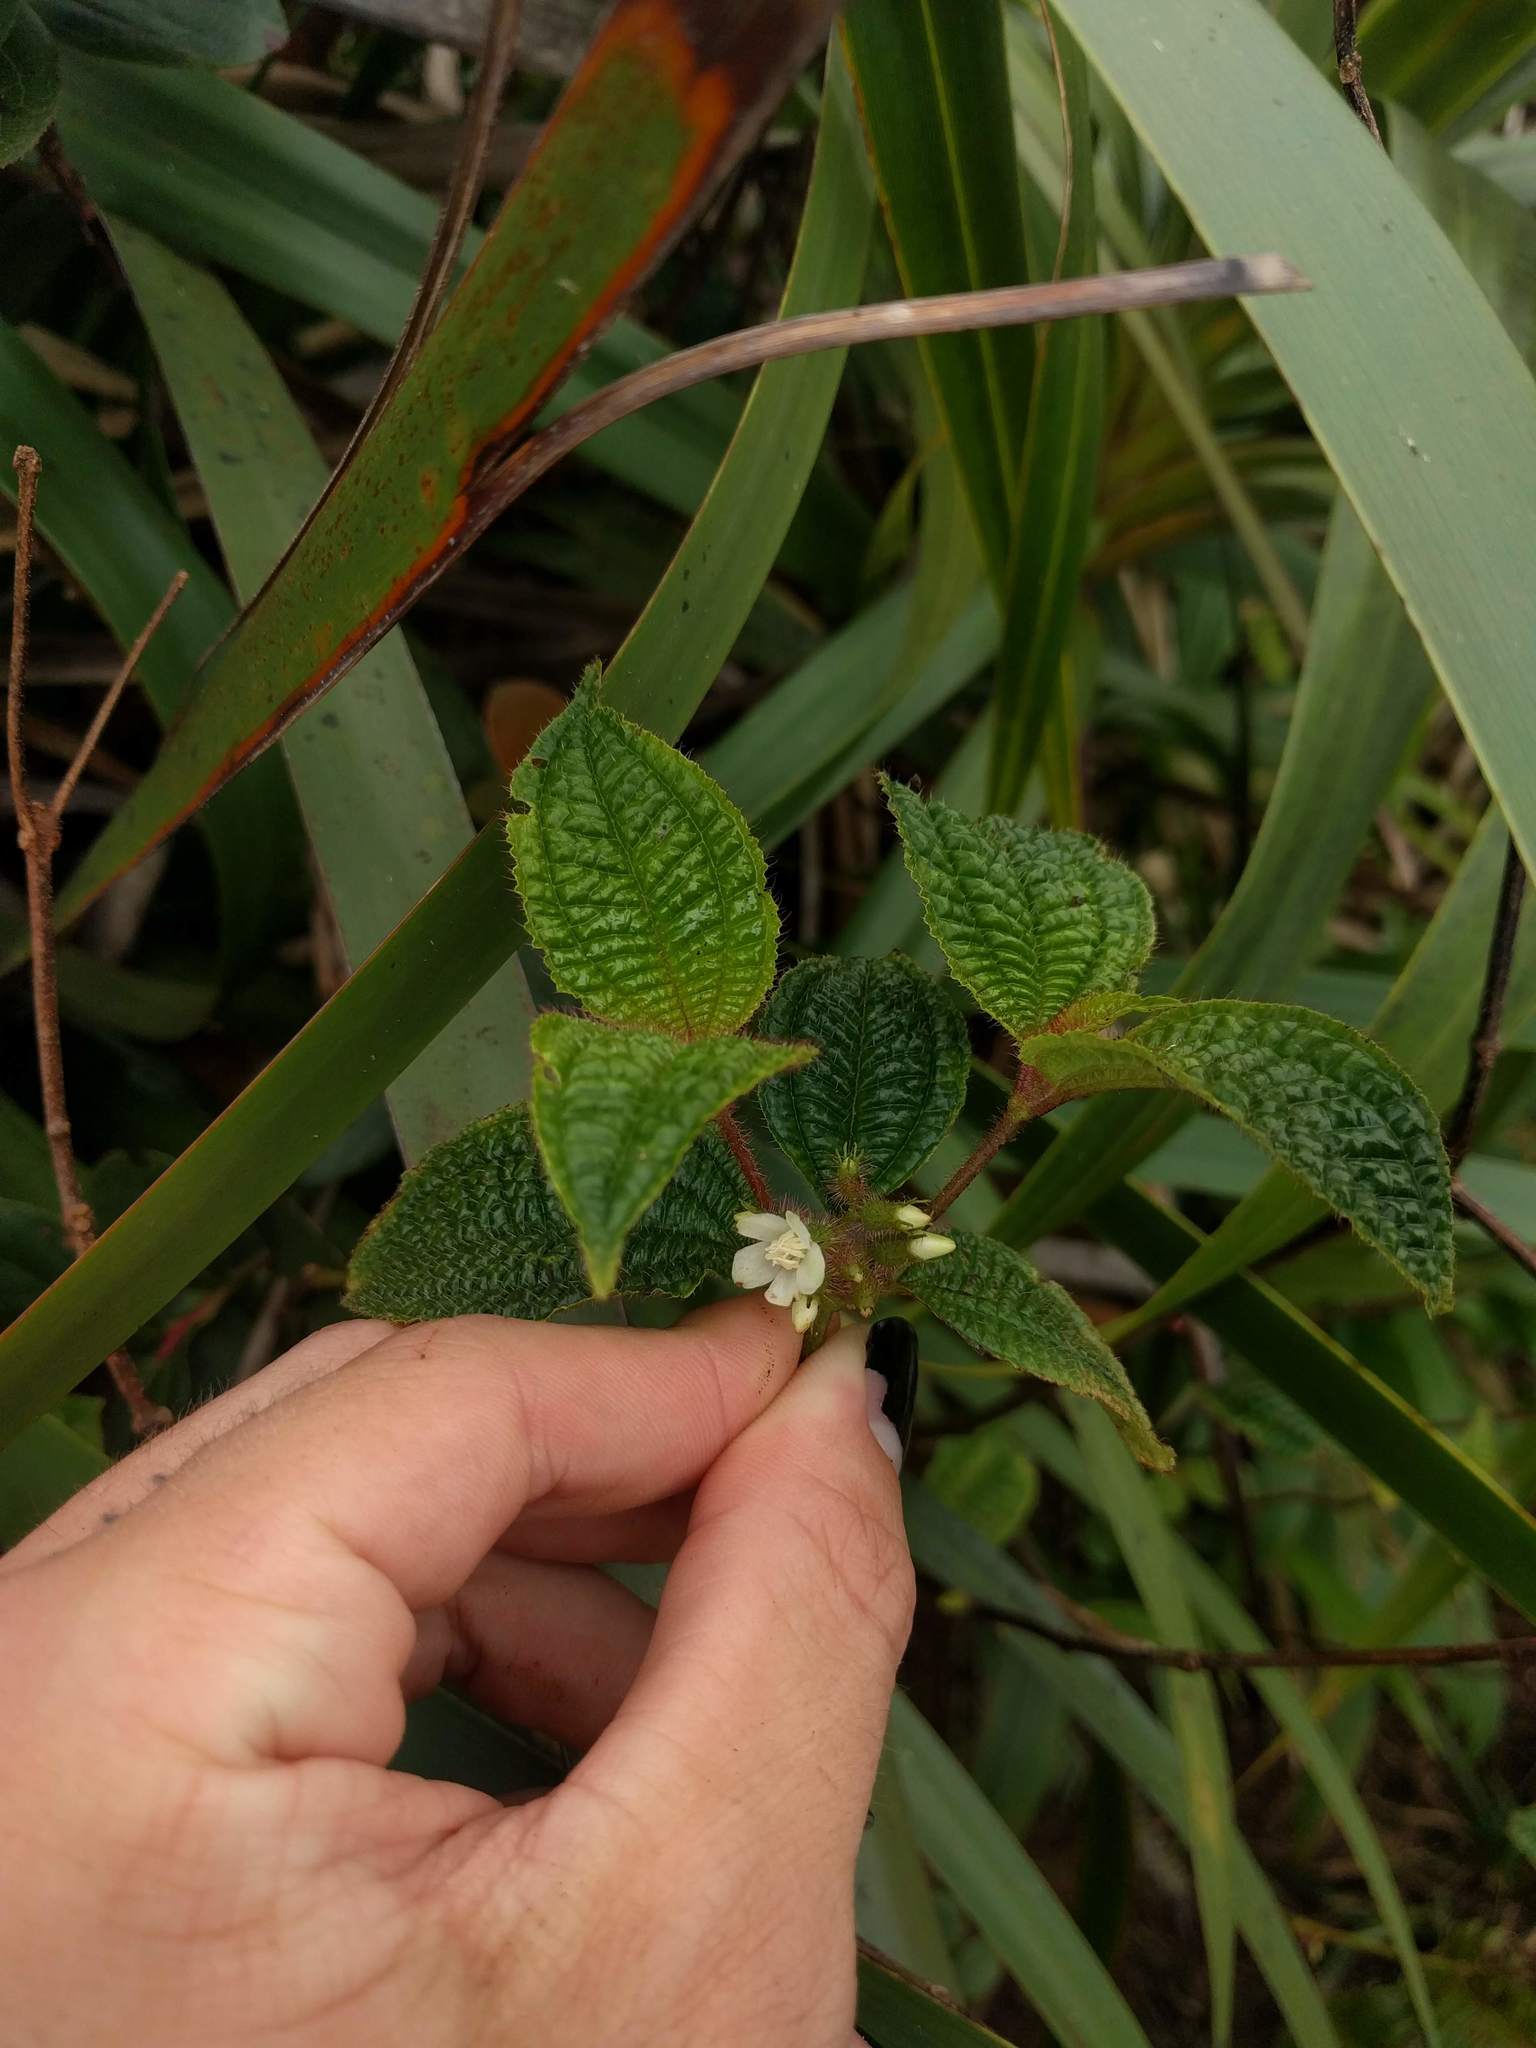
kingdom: Plantae
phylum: Tracheophyta
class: Magnoliopsida
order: Myrtales
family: Melastomataceae
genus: Miconia
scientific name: Miconia crenata
